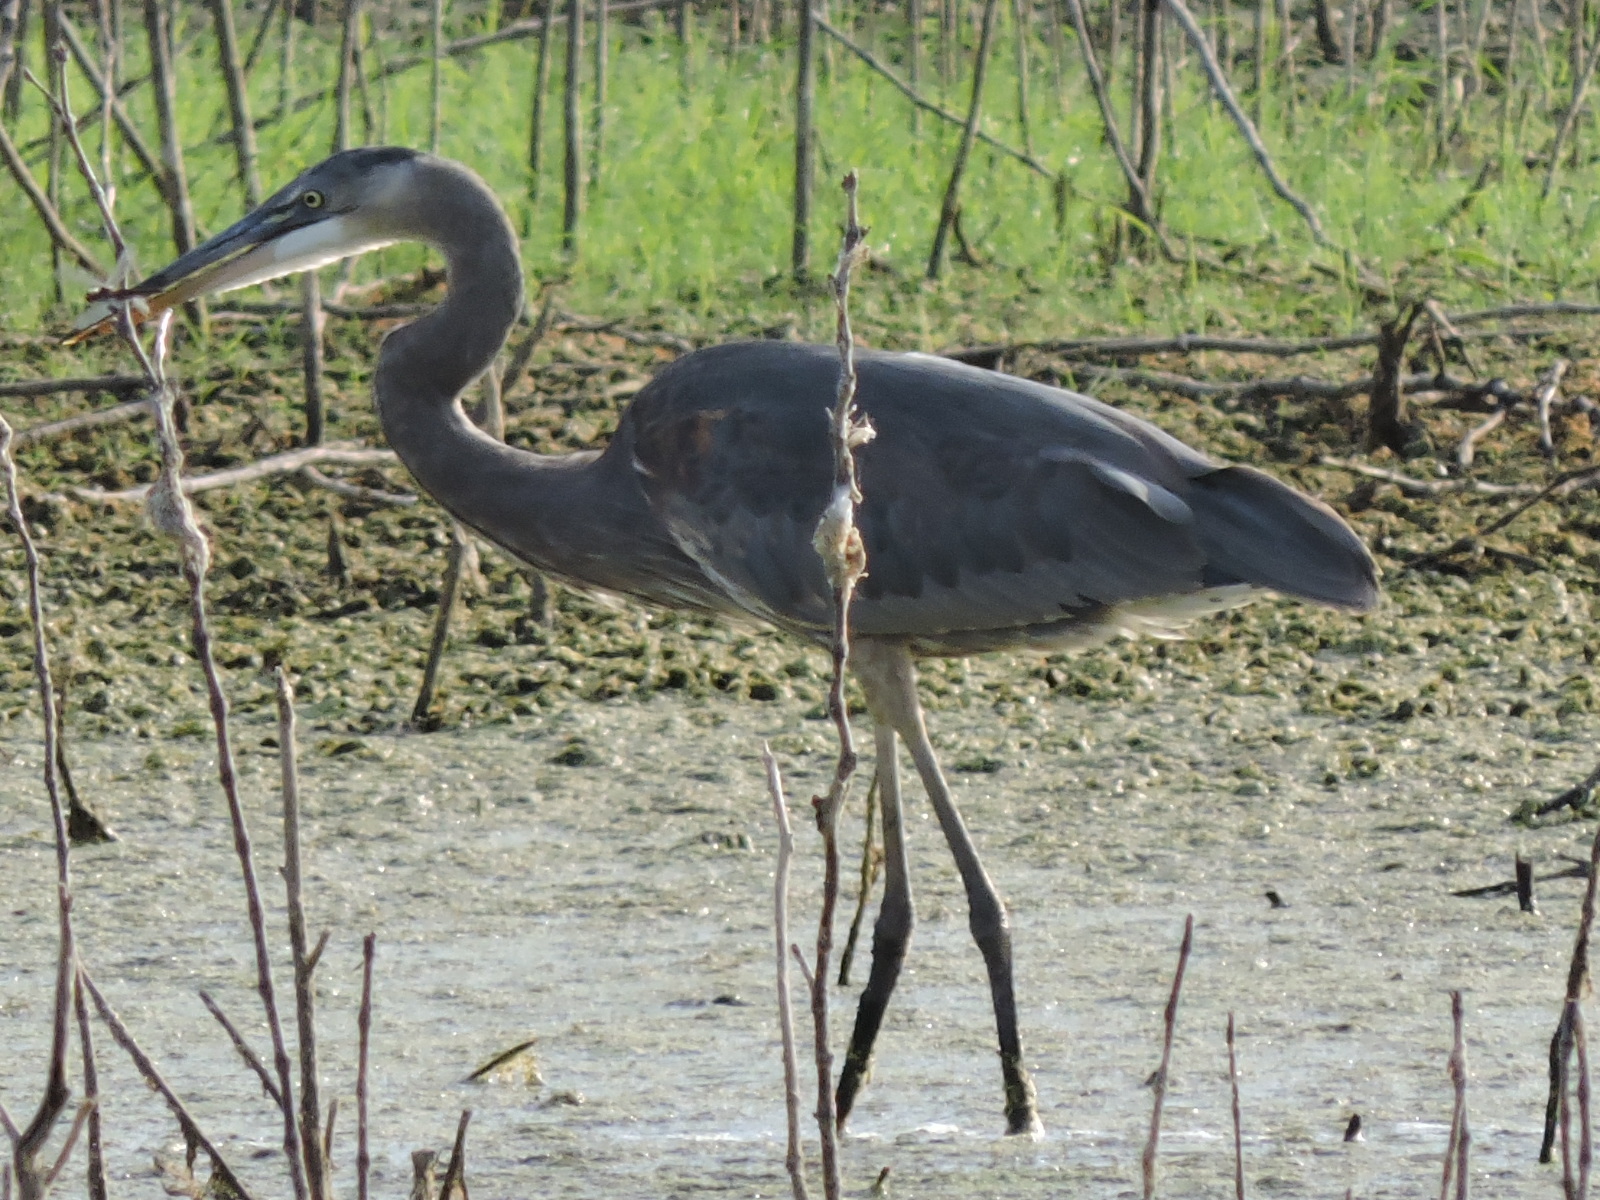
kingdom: Animalia
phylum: Chordata
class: Aves
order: Pelecaniformes
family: Ardeidae
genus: Ardea
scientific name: Ardea herodias
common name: Great blue heron
